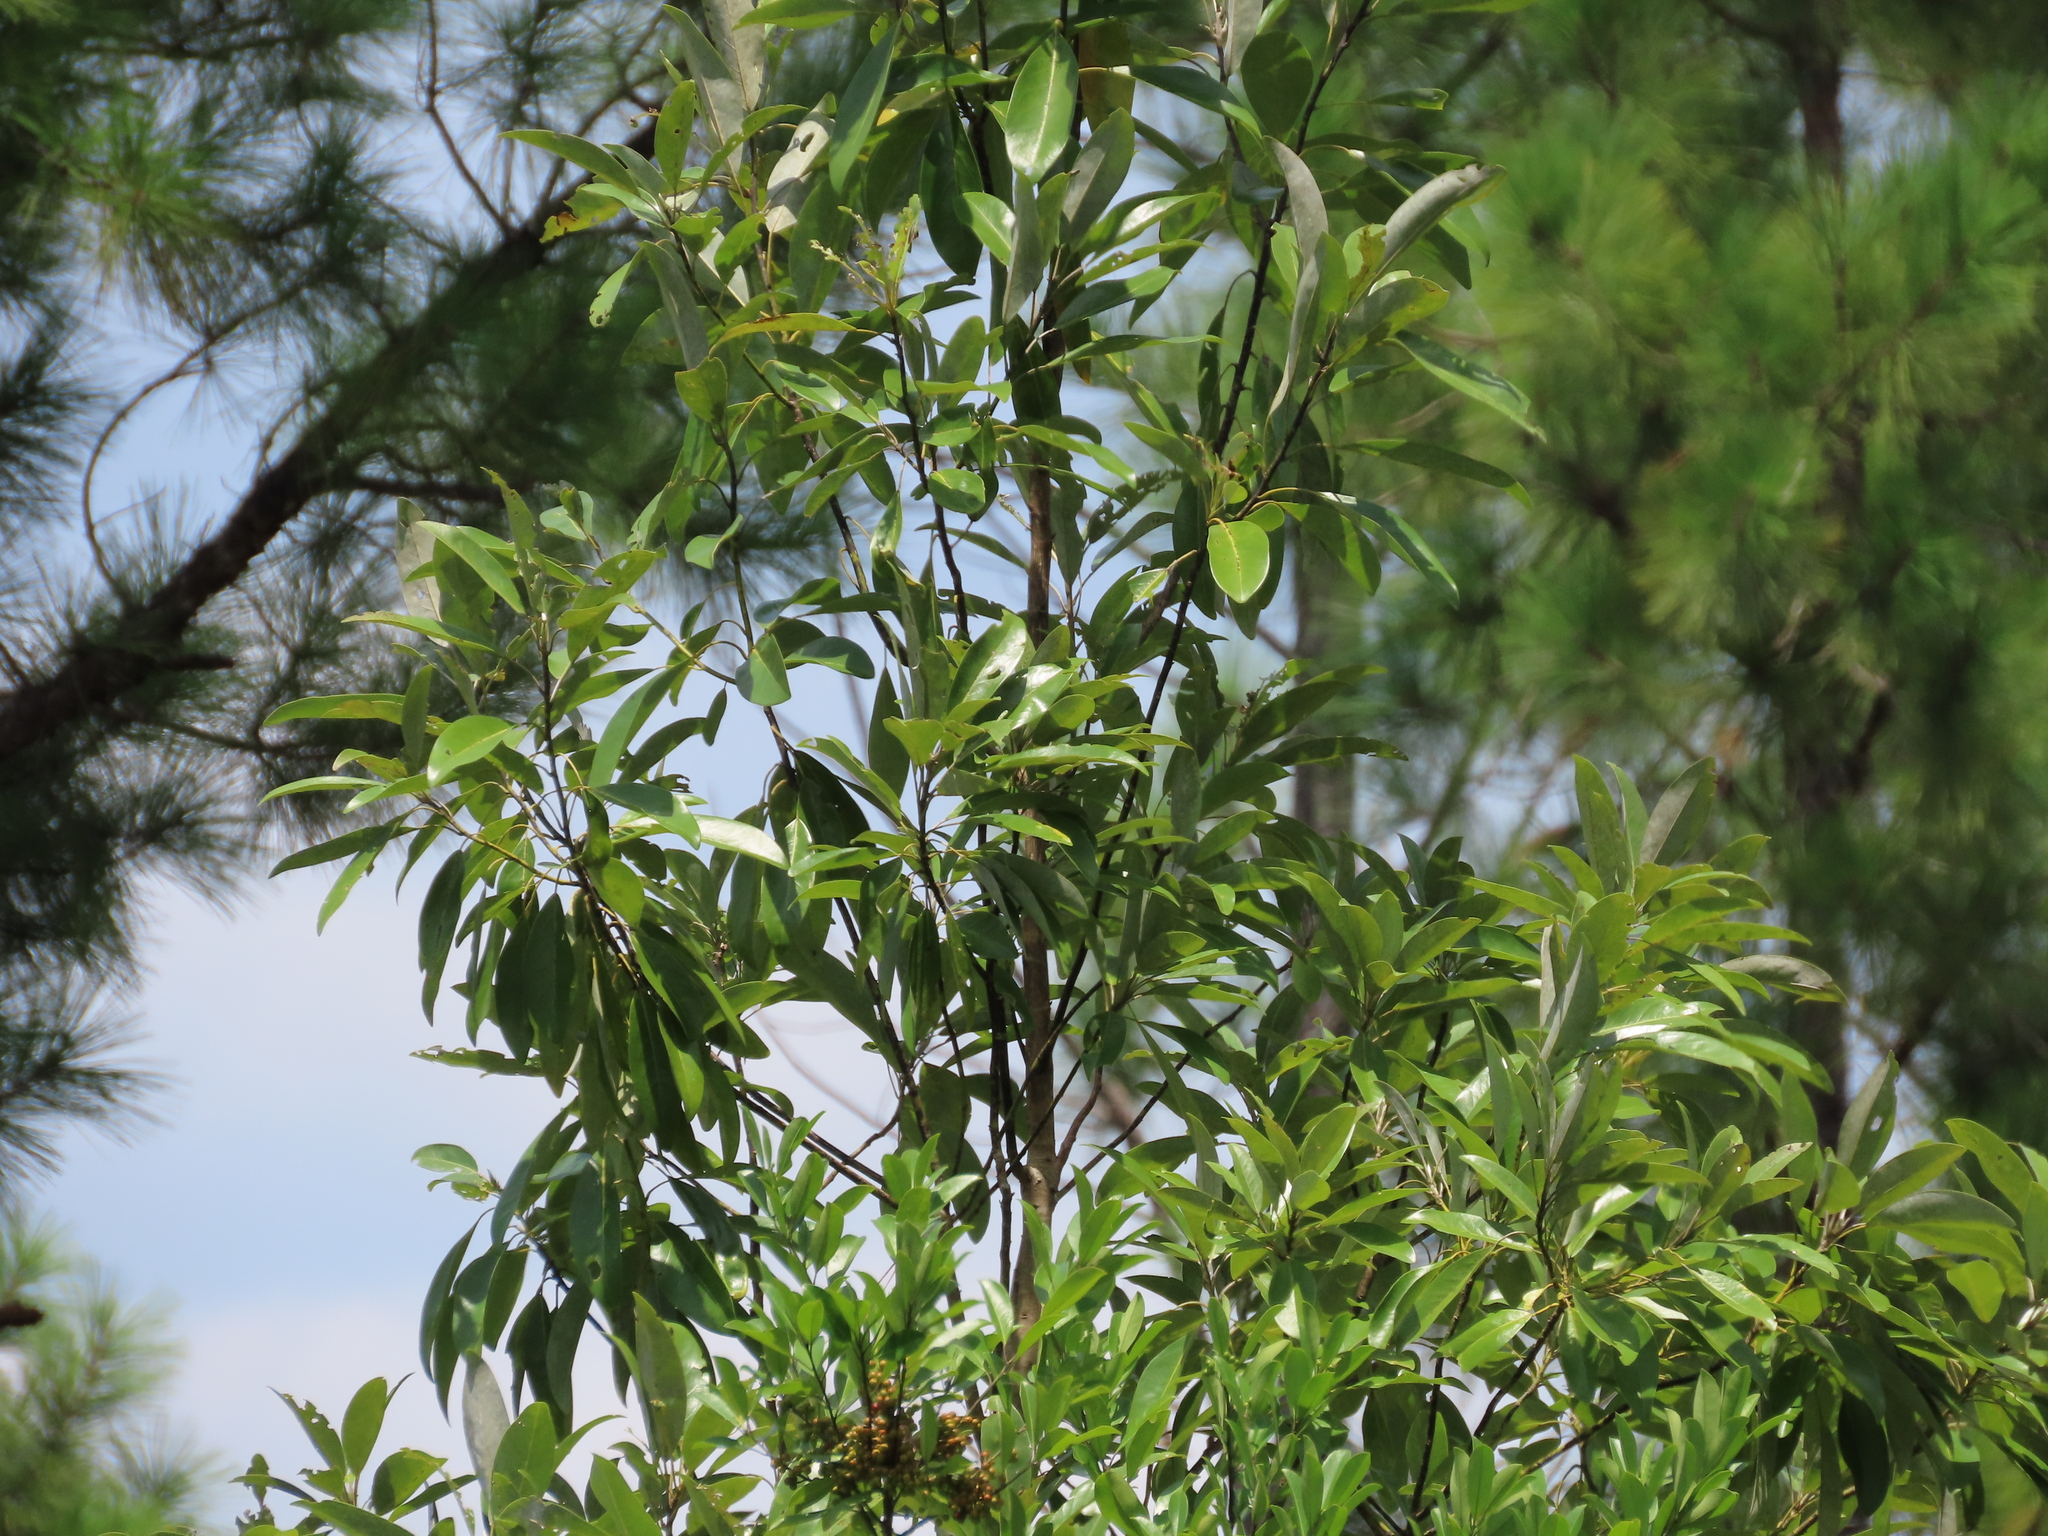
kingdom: Plantae
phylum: Tracheophyta
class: Magnoliopsida
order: Magnoliales
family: Magnoliaceae
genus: Magnolia
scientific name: Magnolia virginiana
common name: Swamp bay
